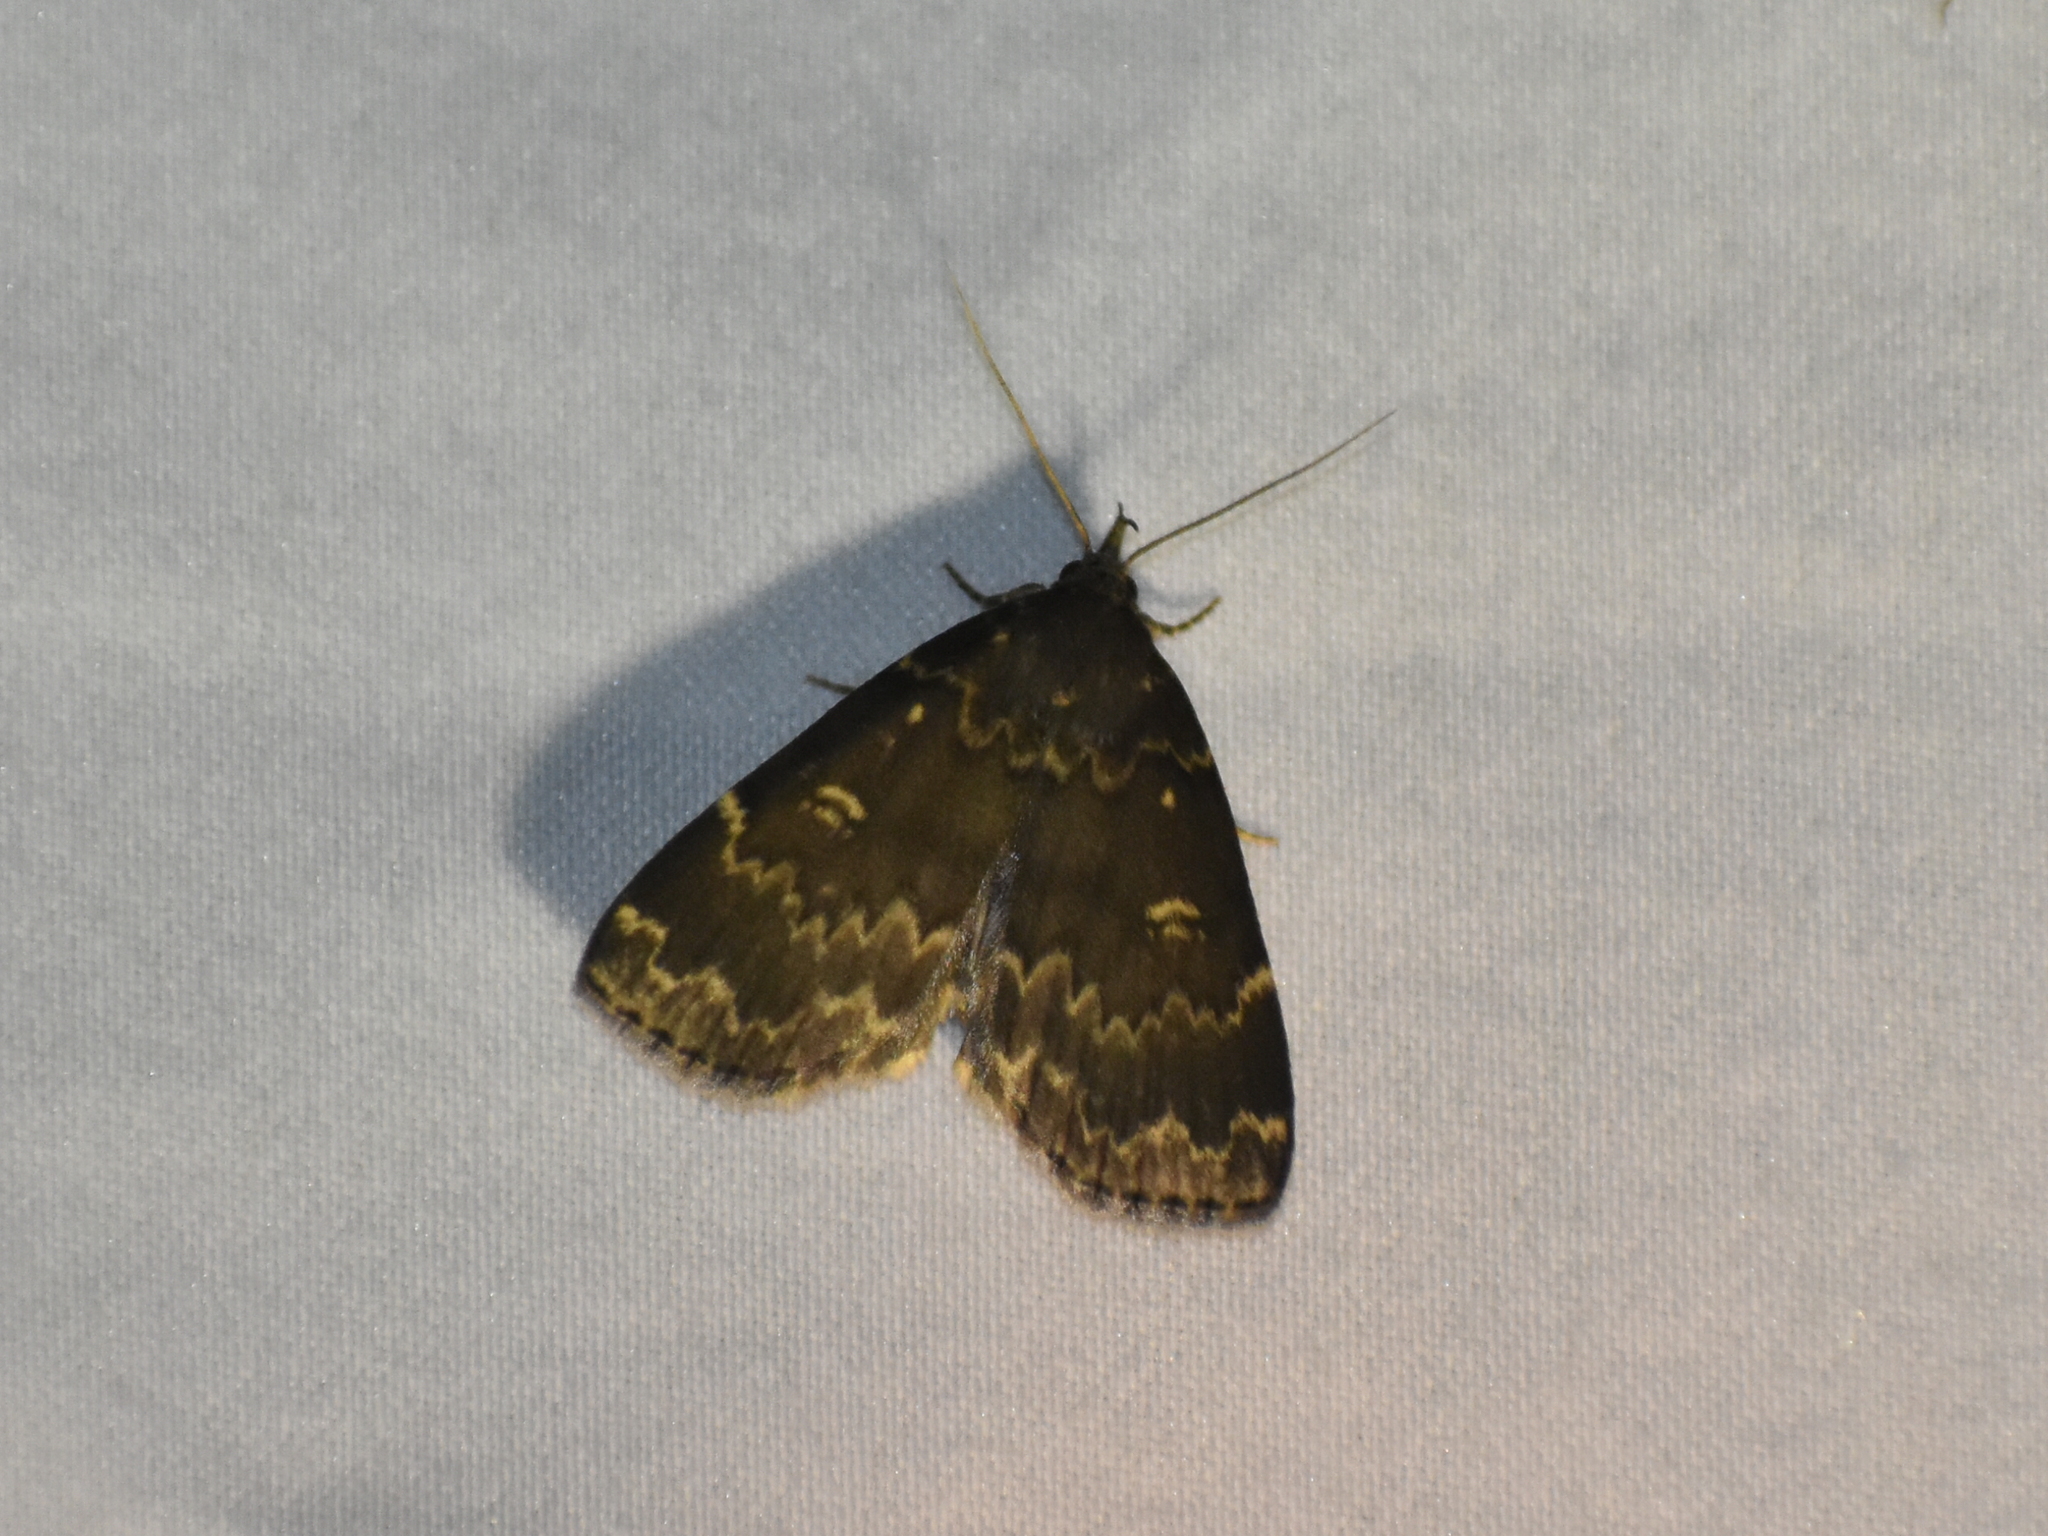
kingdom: Animalia
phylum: Arthropoda
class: Insecta
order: Lepidoptera
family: Erebidae
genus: Idia
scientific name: Idia lubricalis
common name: Twin-striped tabby
